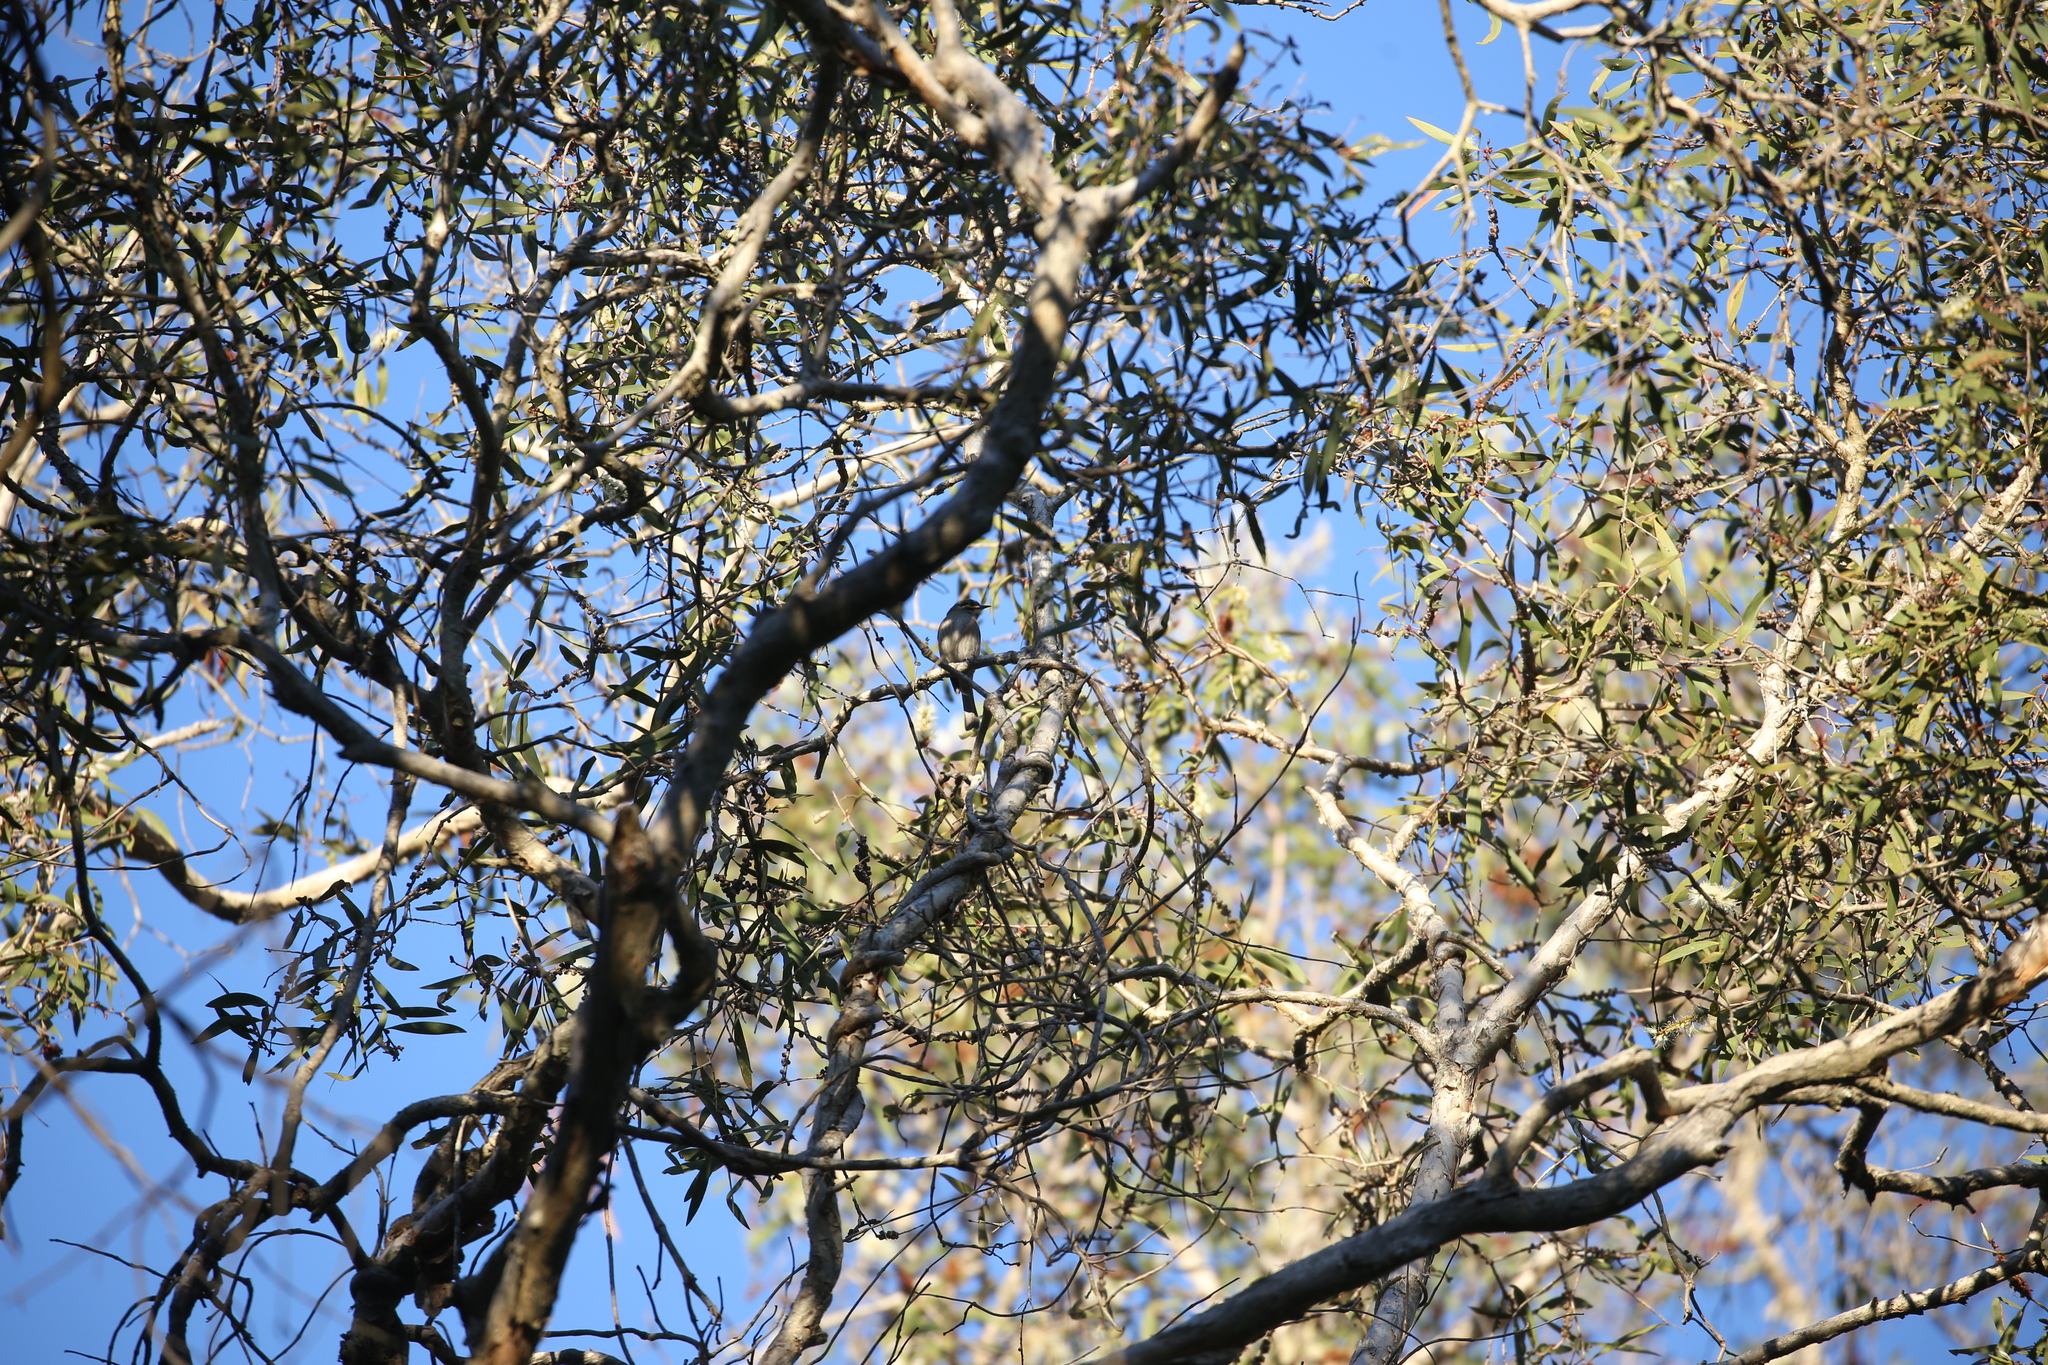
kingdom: Animalia
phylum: Chordata
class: Aves
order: Passeriformes
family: Meliphagidae
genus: Caligavis
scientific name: Caligavis chrysops
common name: Yellow-faced honeyeater
